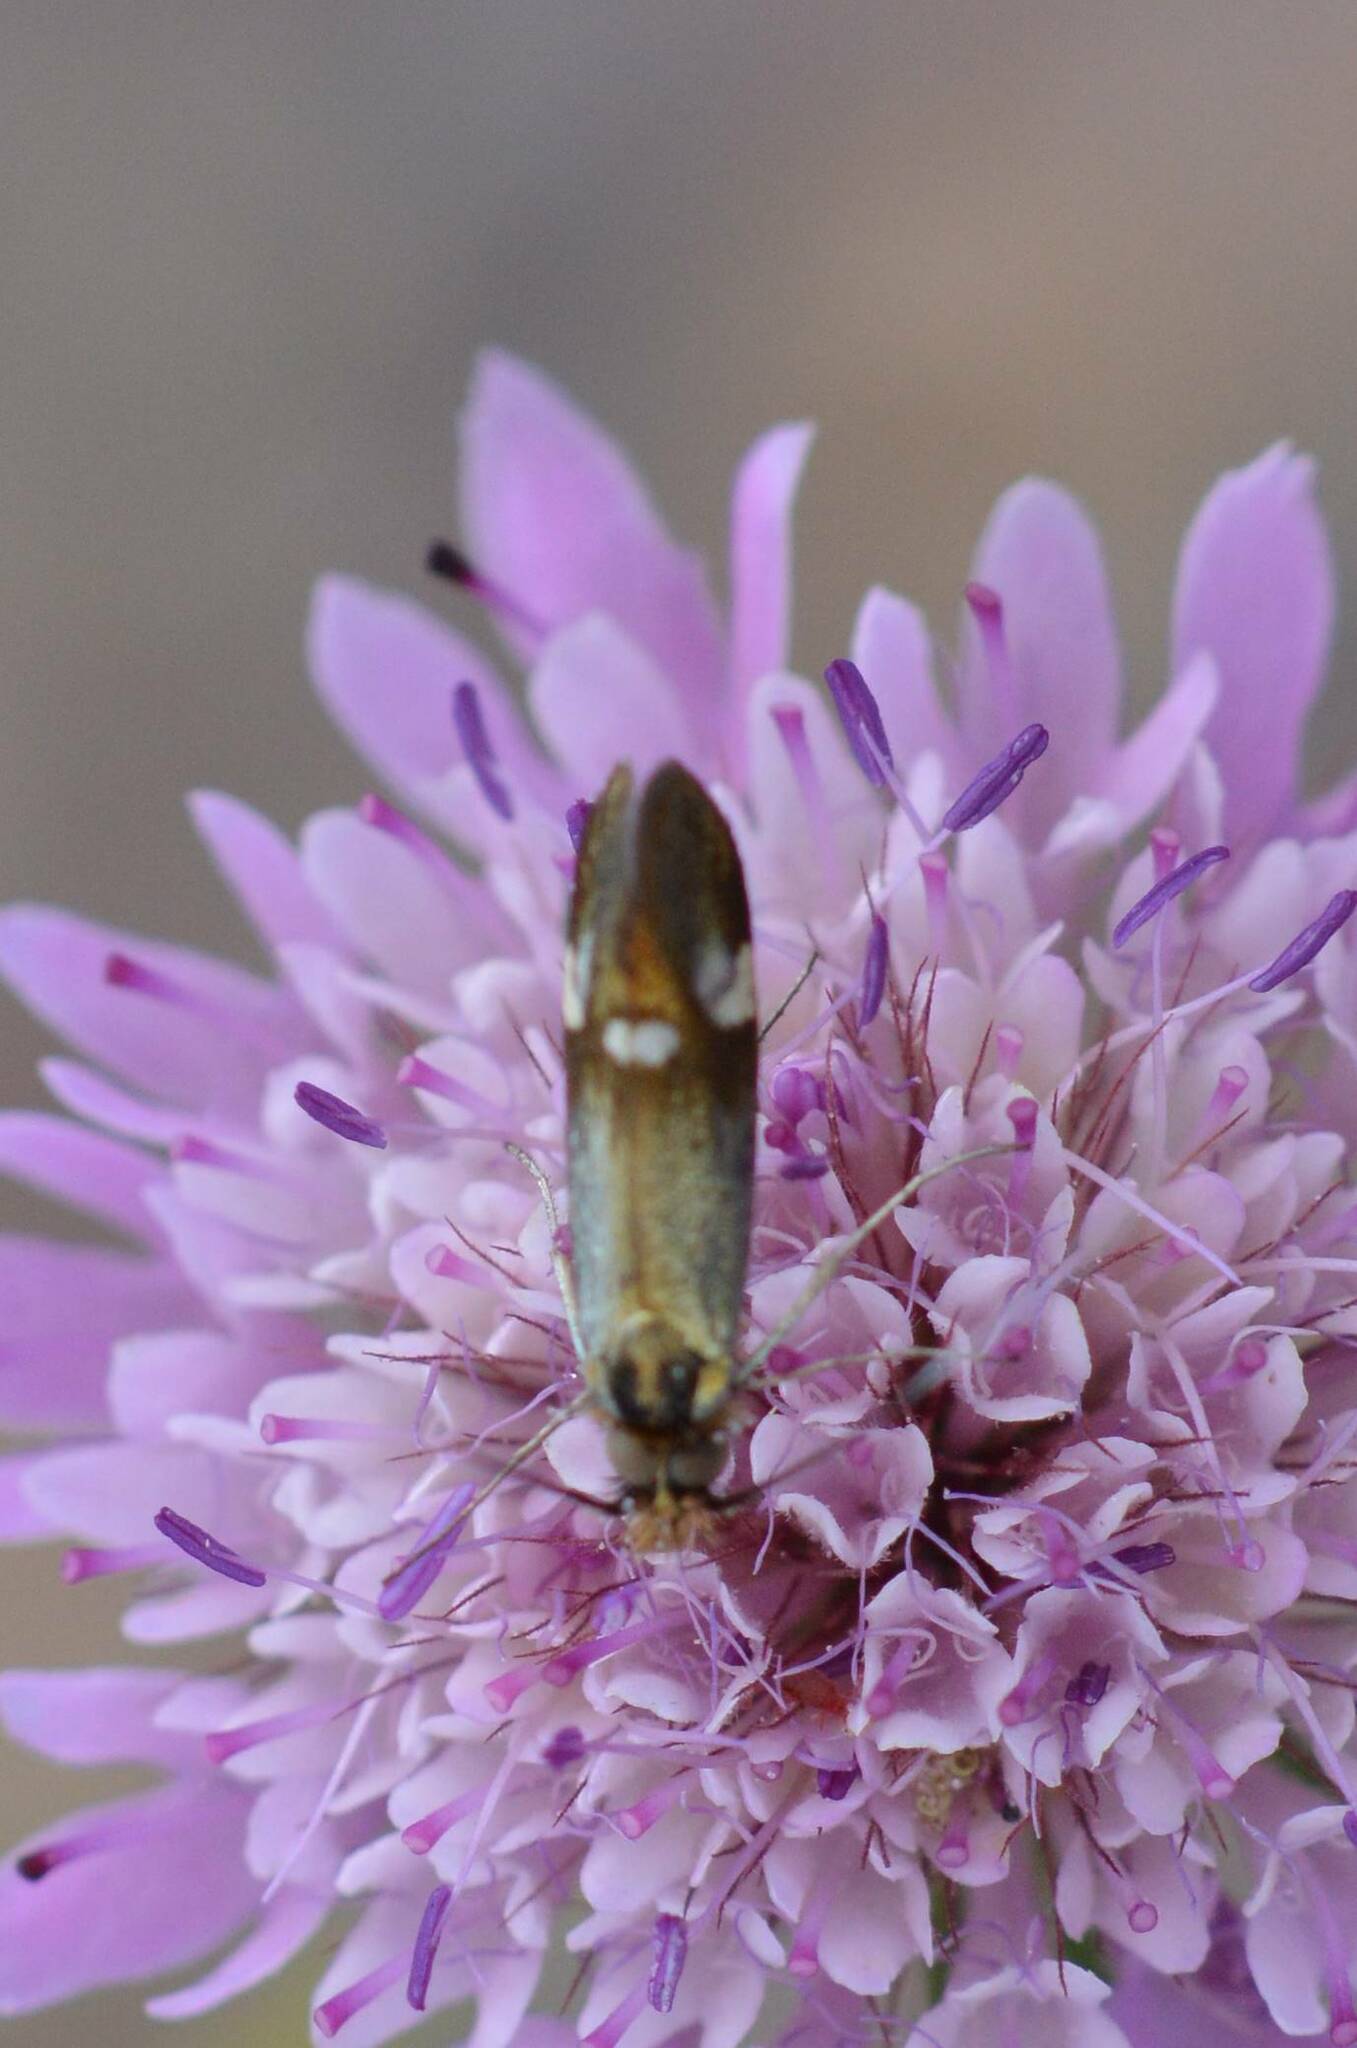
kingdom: Animalia
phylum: Arthropoda
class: Insecta
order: Lepidoptera
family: Adelidae
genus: Nemophora
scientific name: Nemophora raddaella
